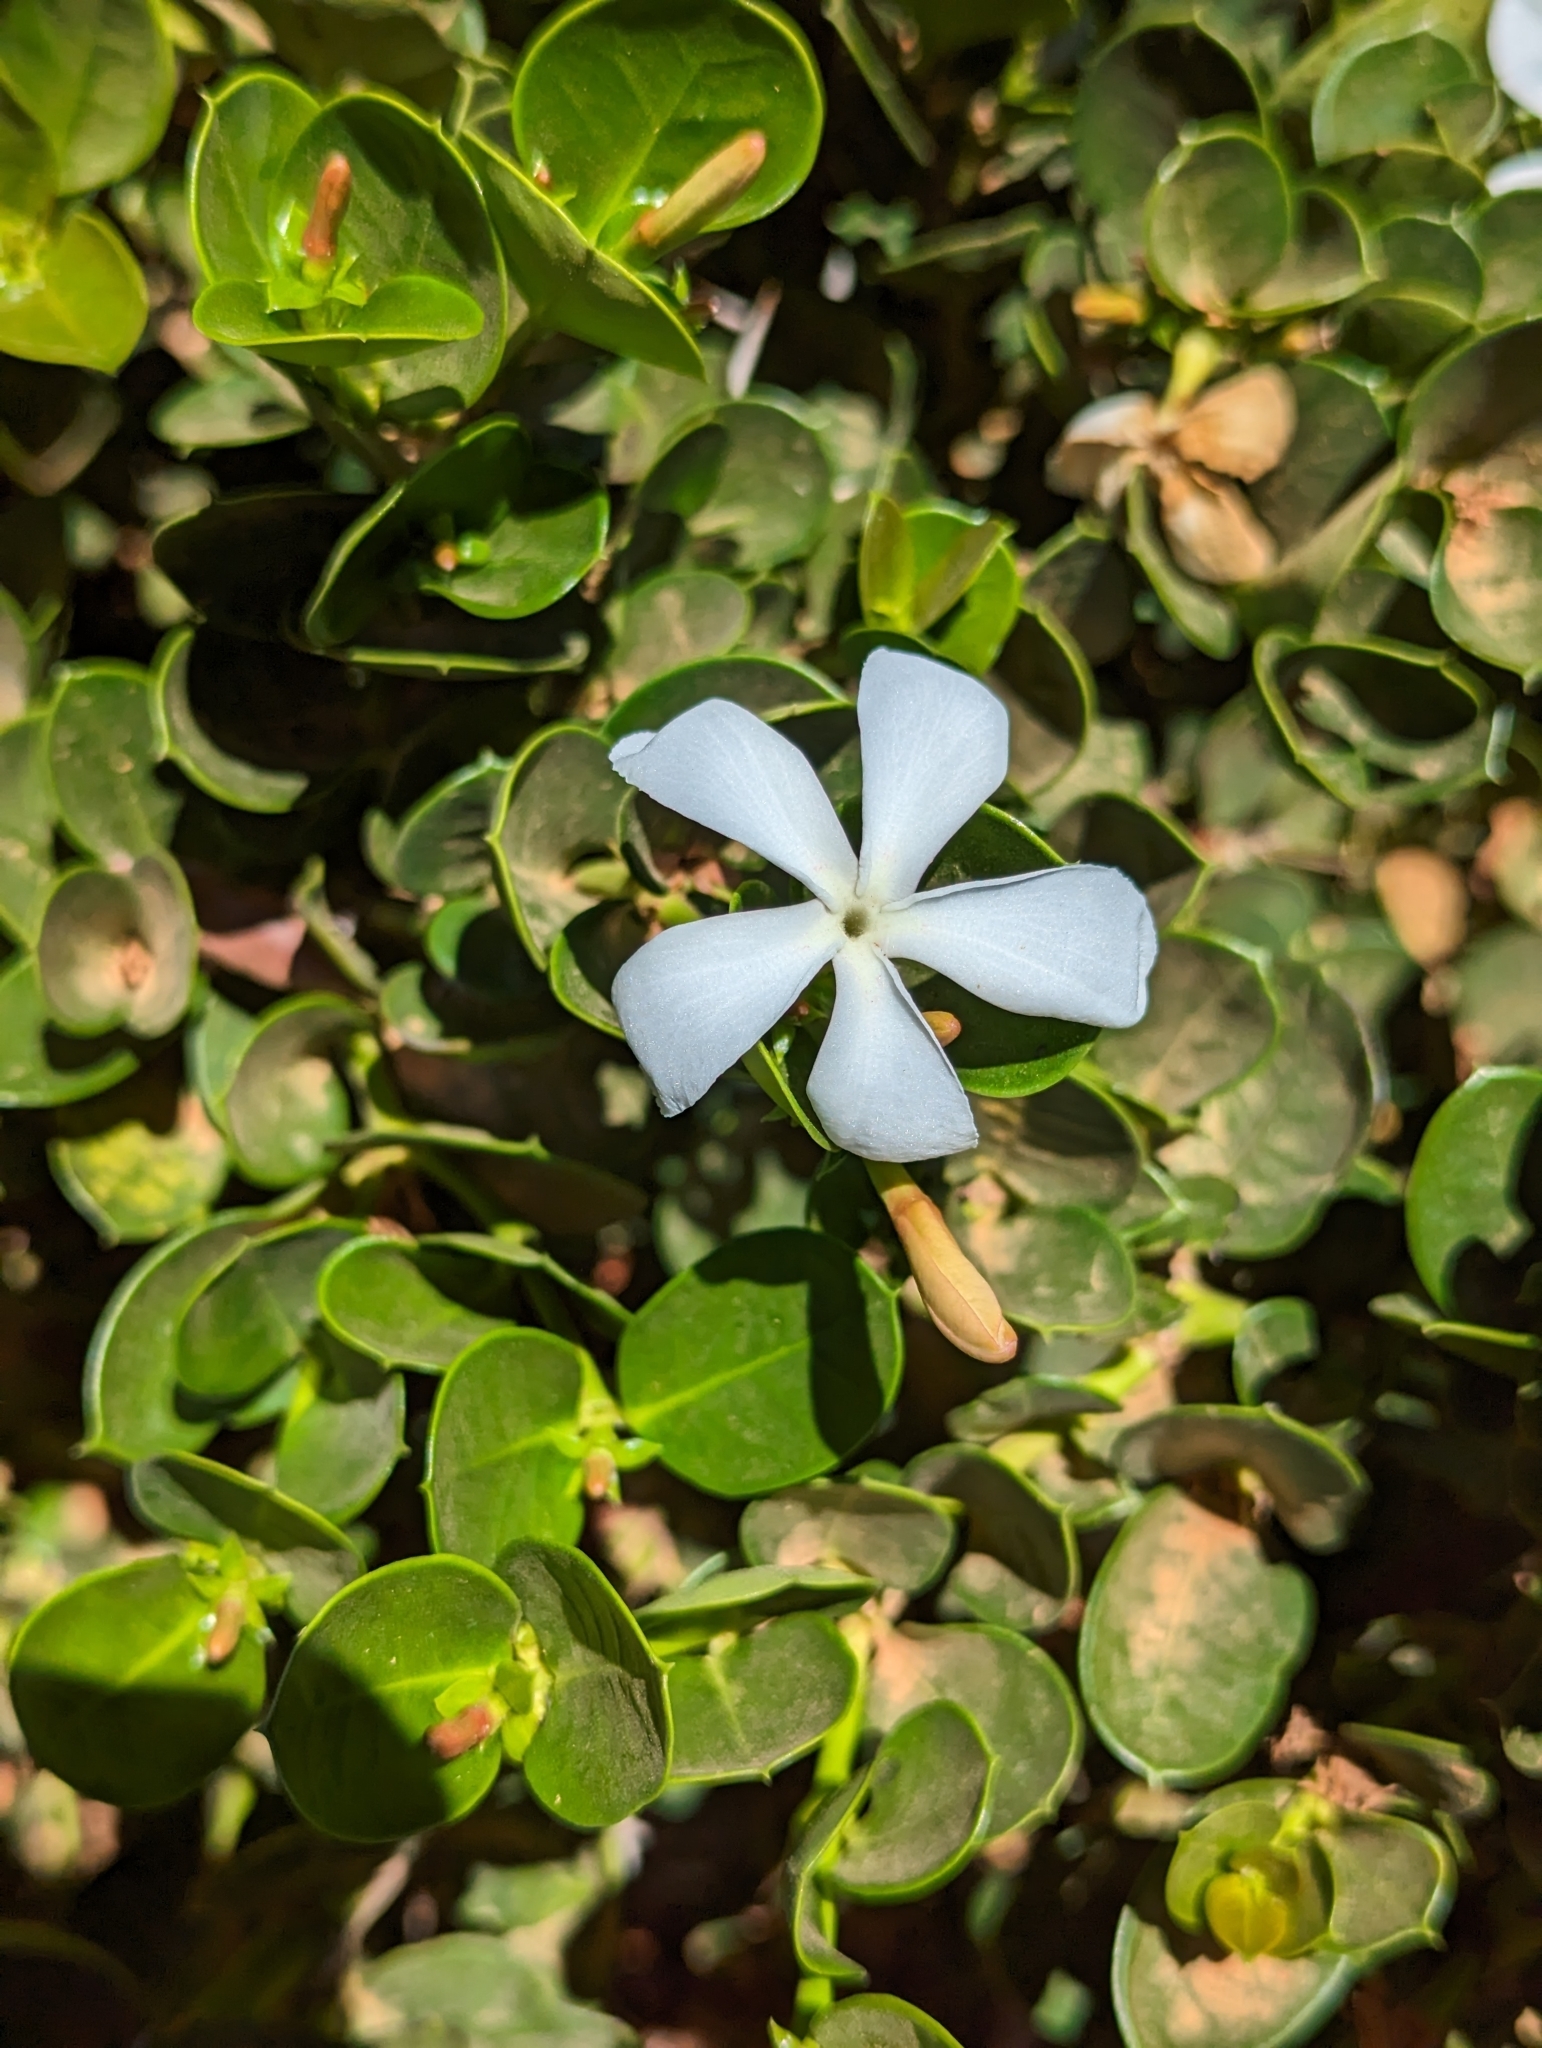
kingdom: Plantae
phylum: Tracheophyta
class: Magnoliopsida
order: Gentianales
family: Apocynaceae
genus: Carissa
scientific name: Carissa macrocarpa
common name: Natal plum
